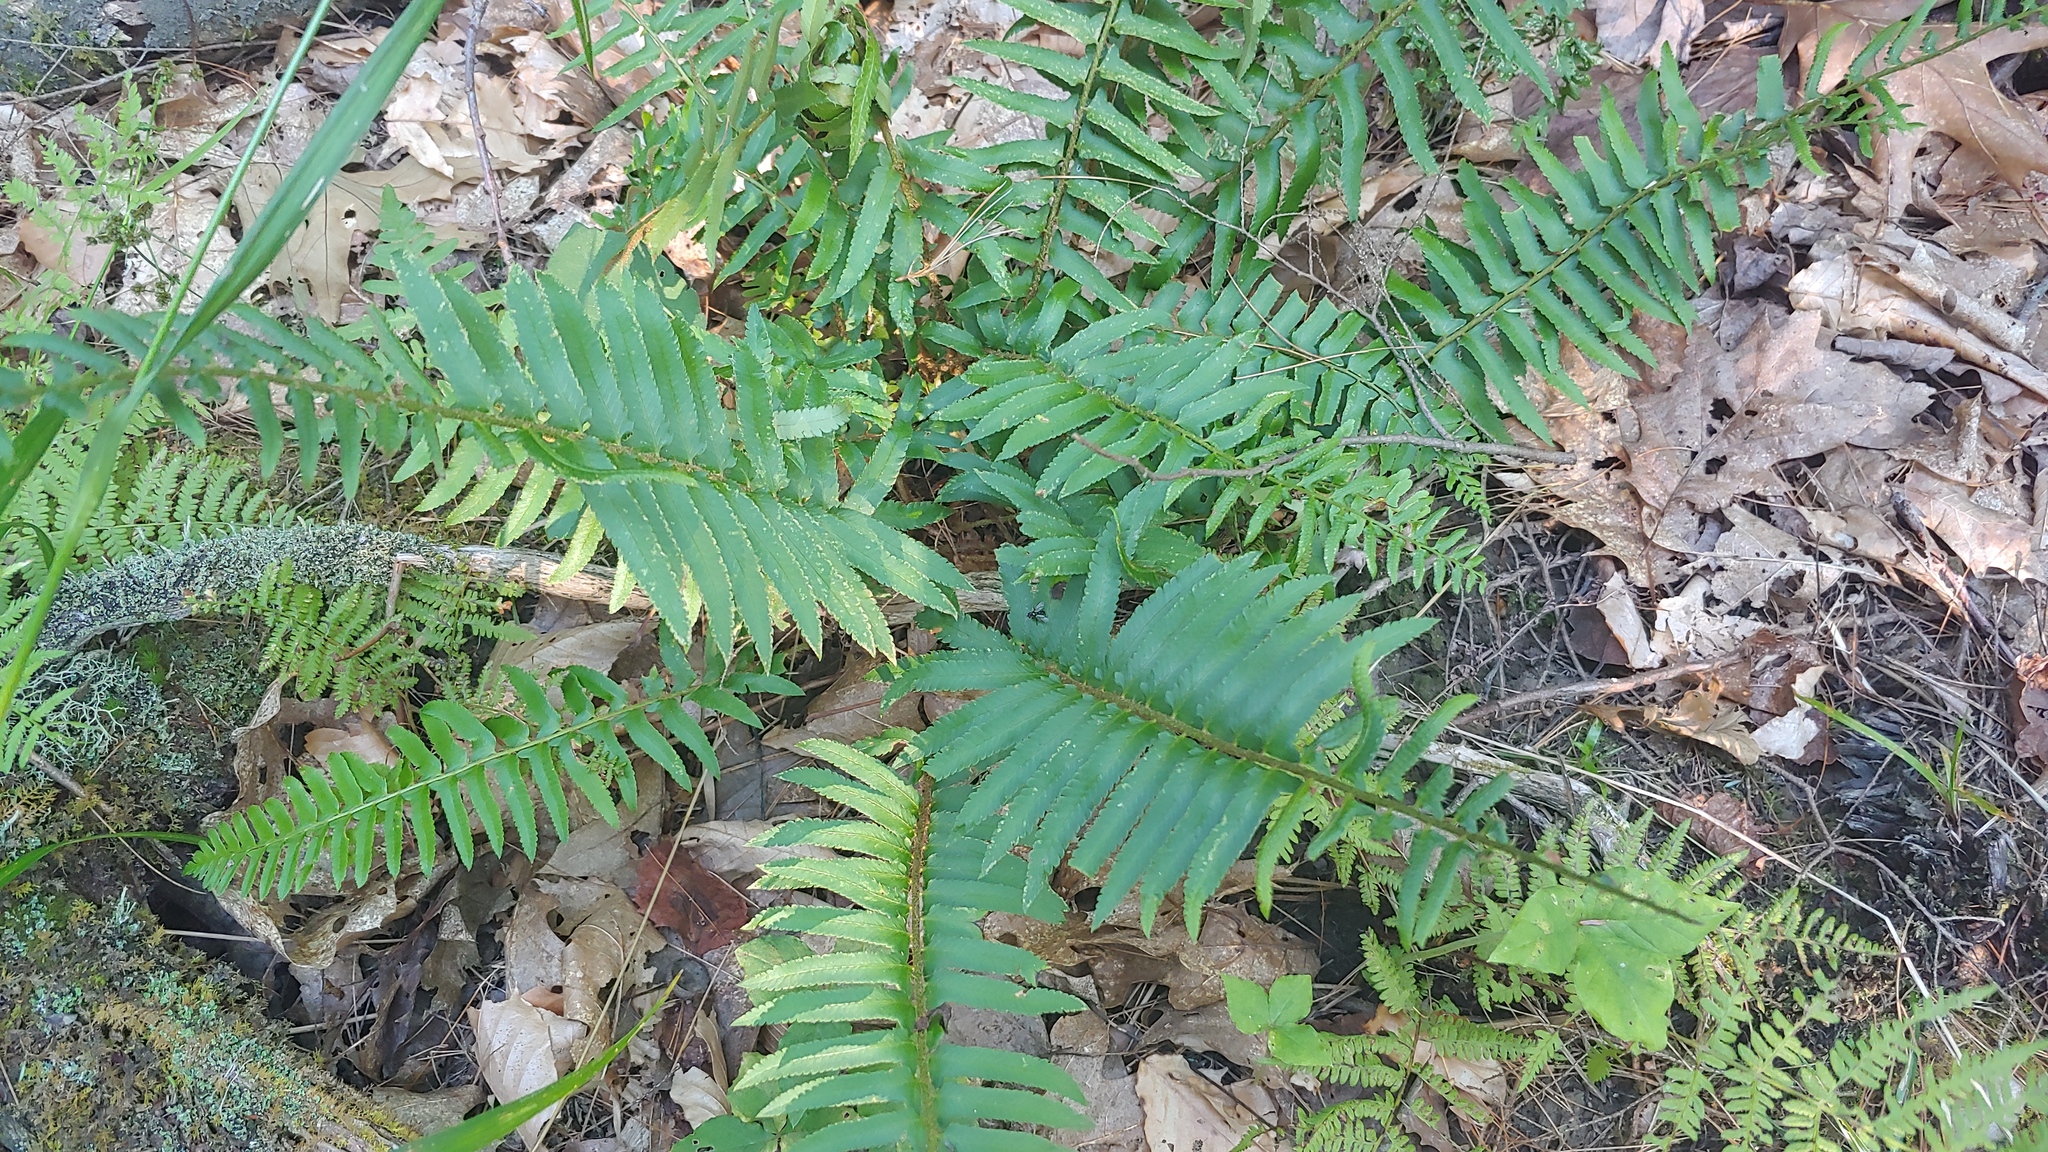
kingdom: Plantae
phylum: Tracheophyta
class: Polypodiopsida
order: Polypodiales
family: Dryopteridaceae
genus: Polystichum
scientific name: Polystichum acrostichoides
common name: Christmas fern
